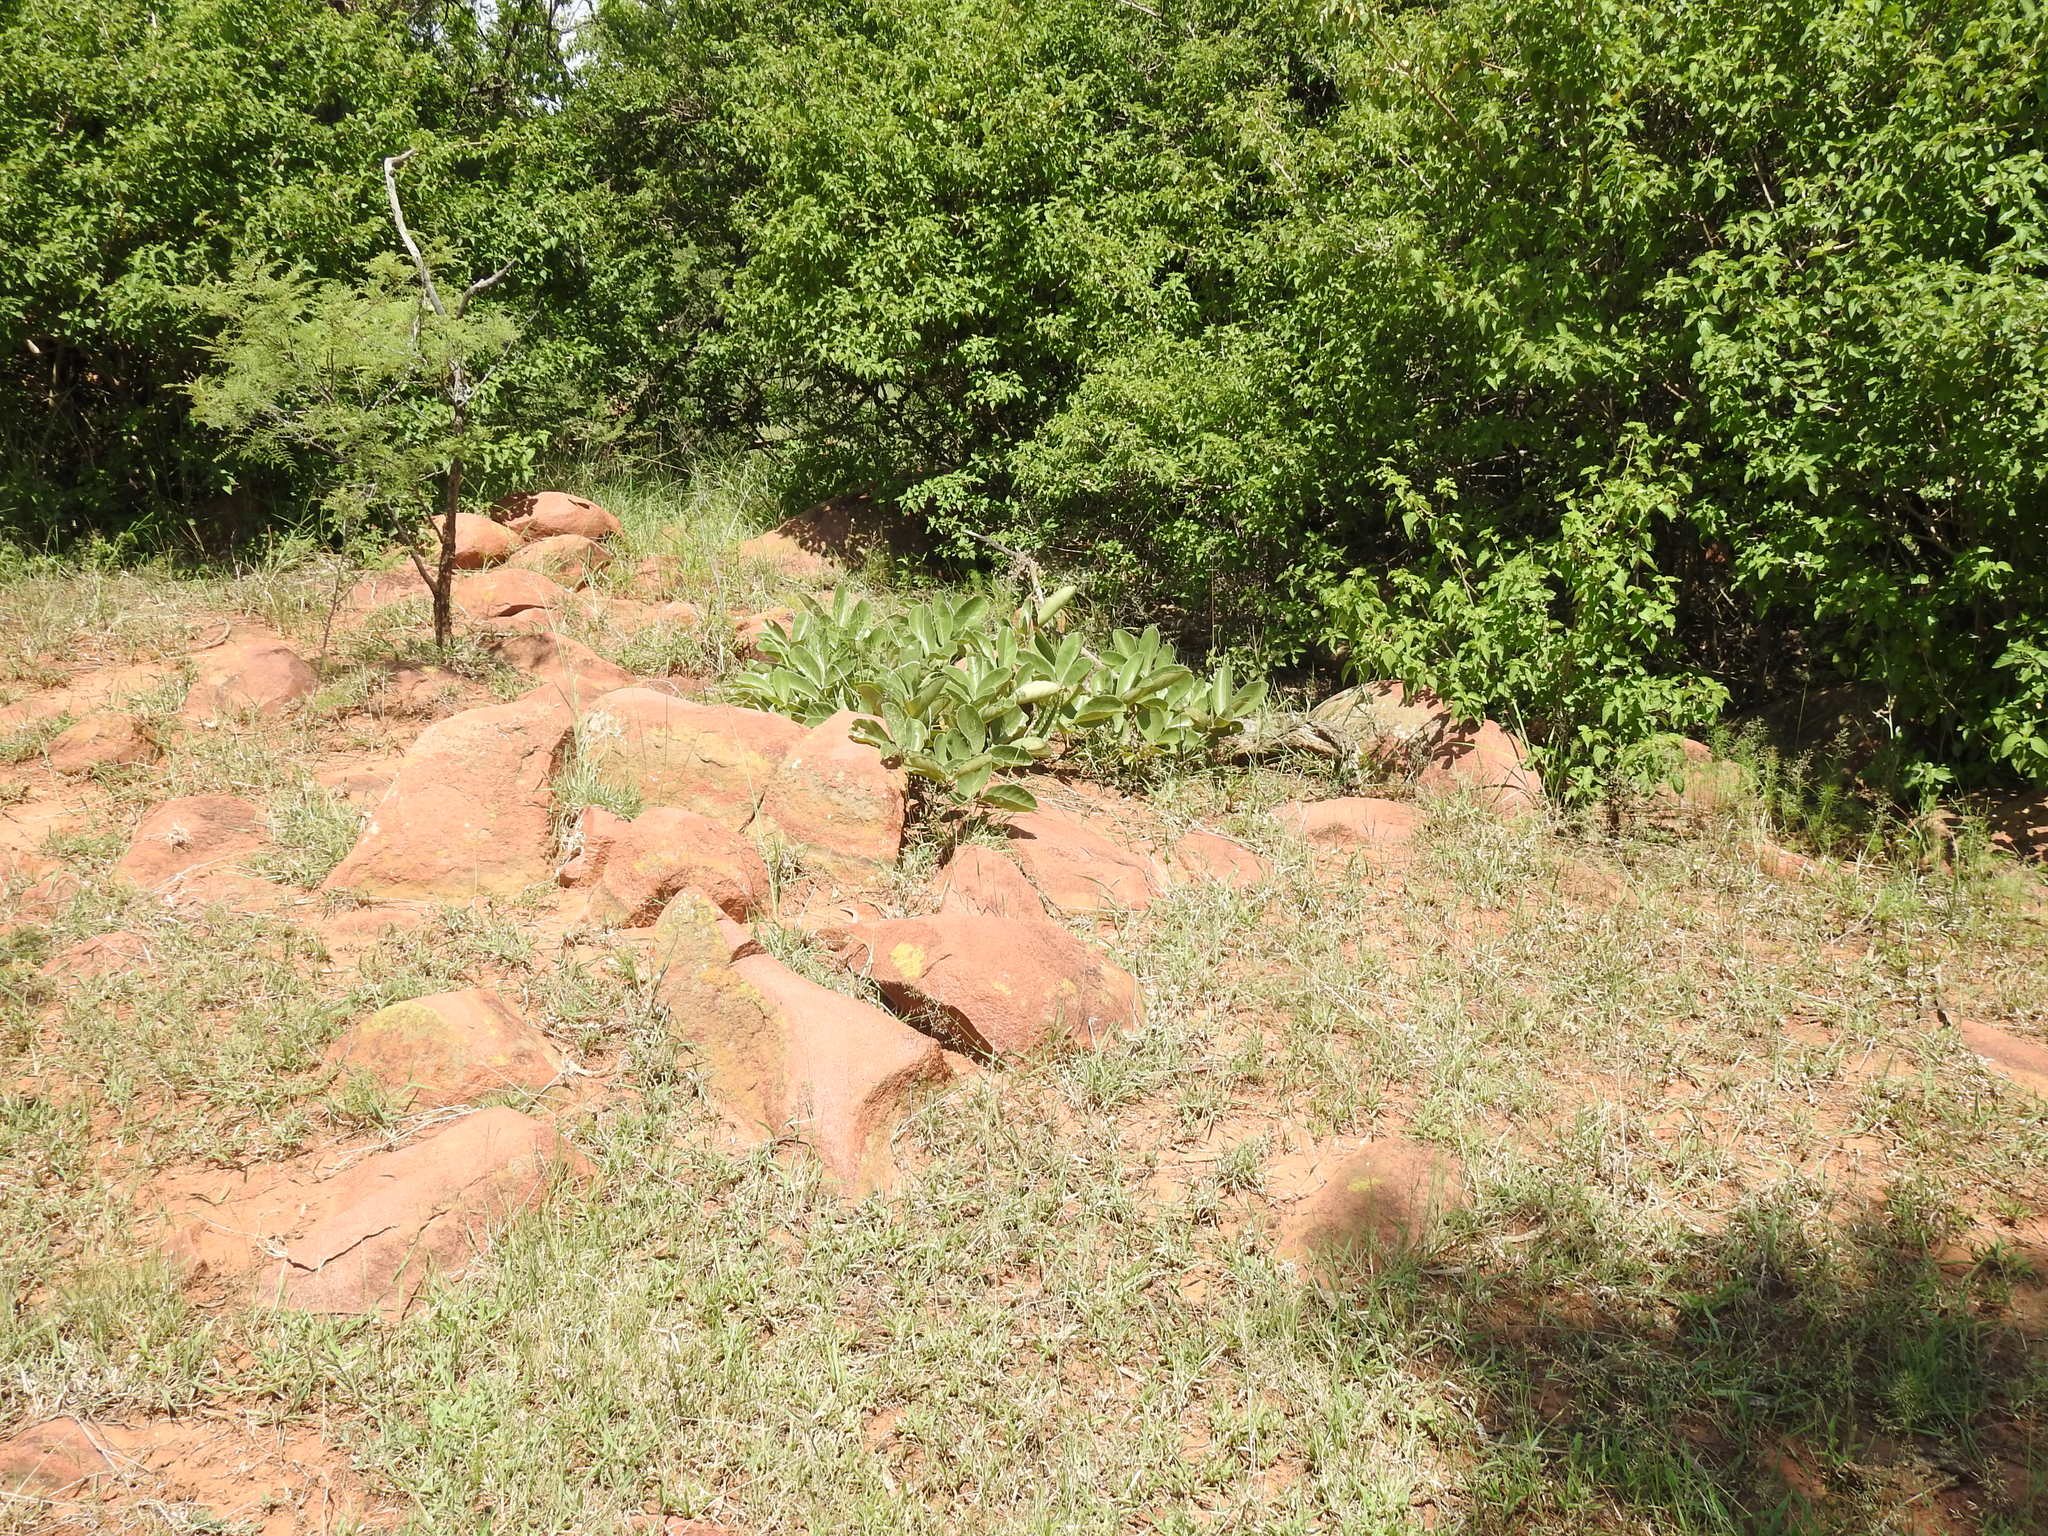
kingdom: Plantae
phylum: Tracheophyta
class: Magnoliopsida
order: Sapindales
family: Anacardiaceae
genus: Lannea
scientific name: Lannea edulis
